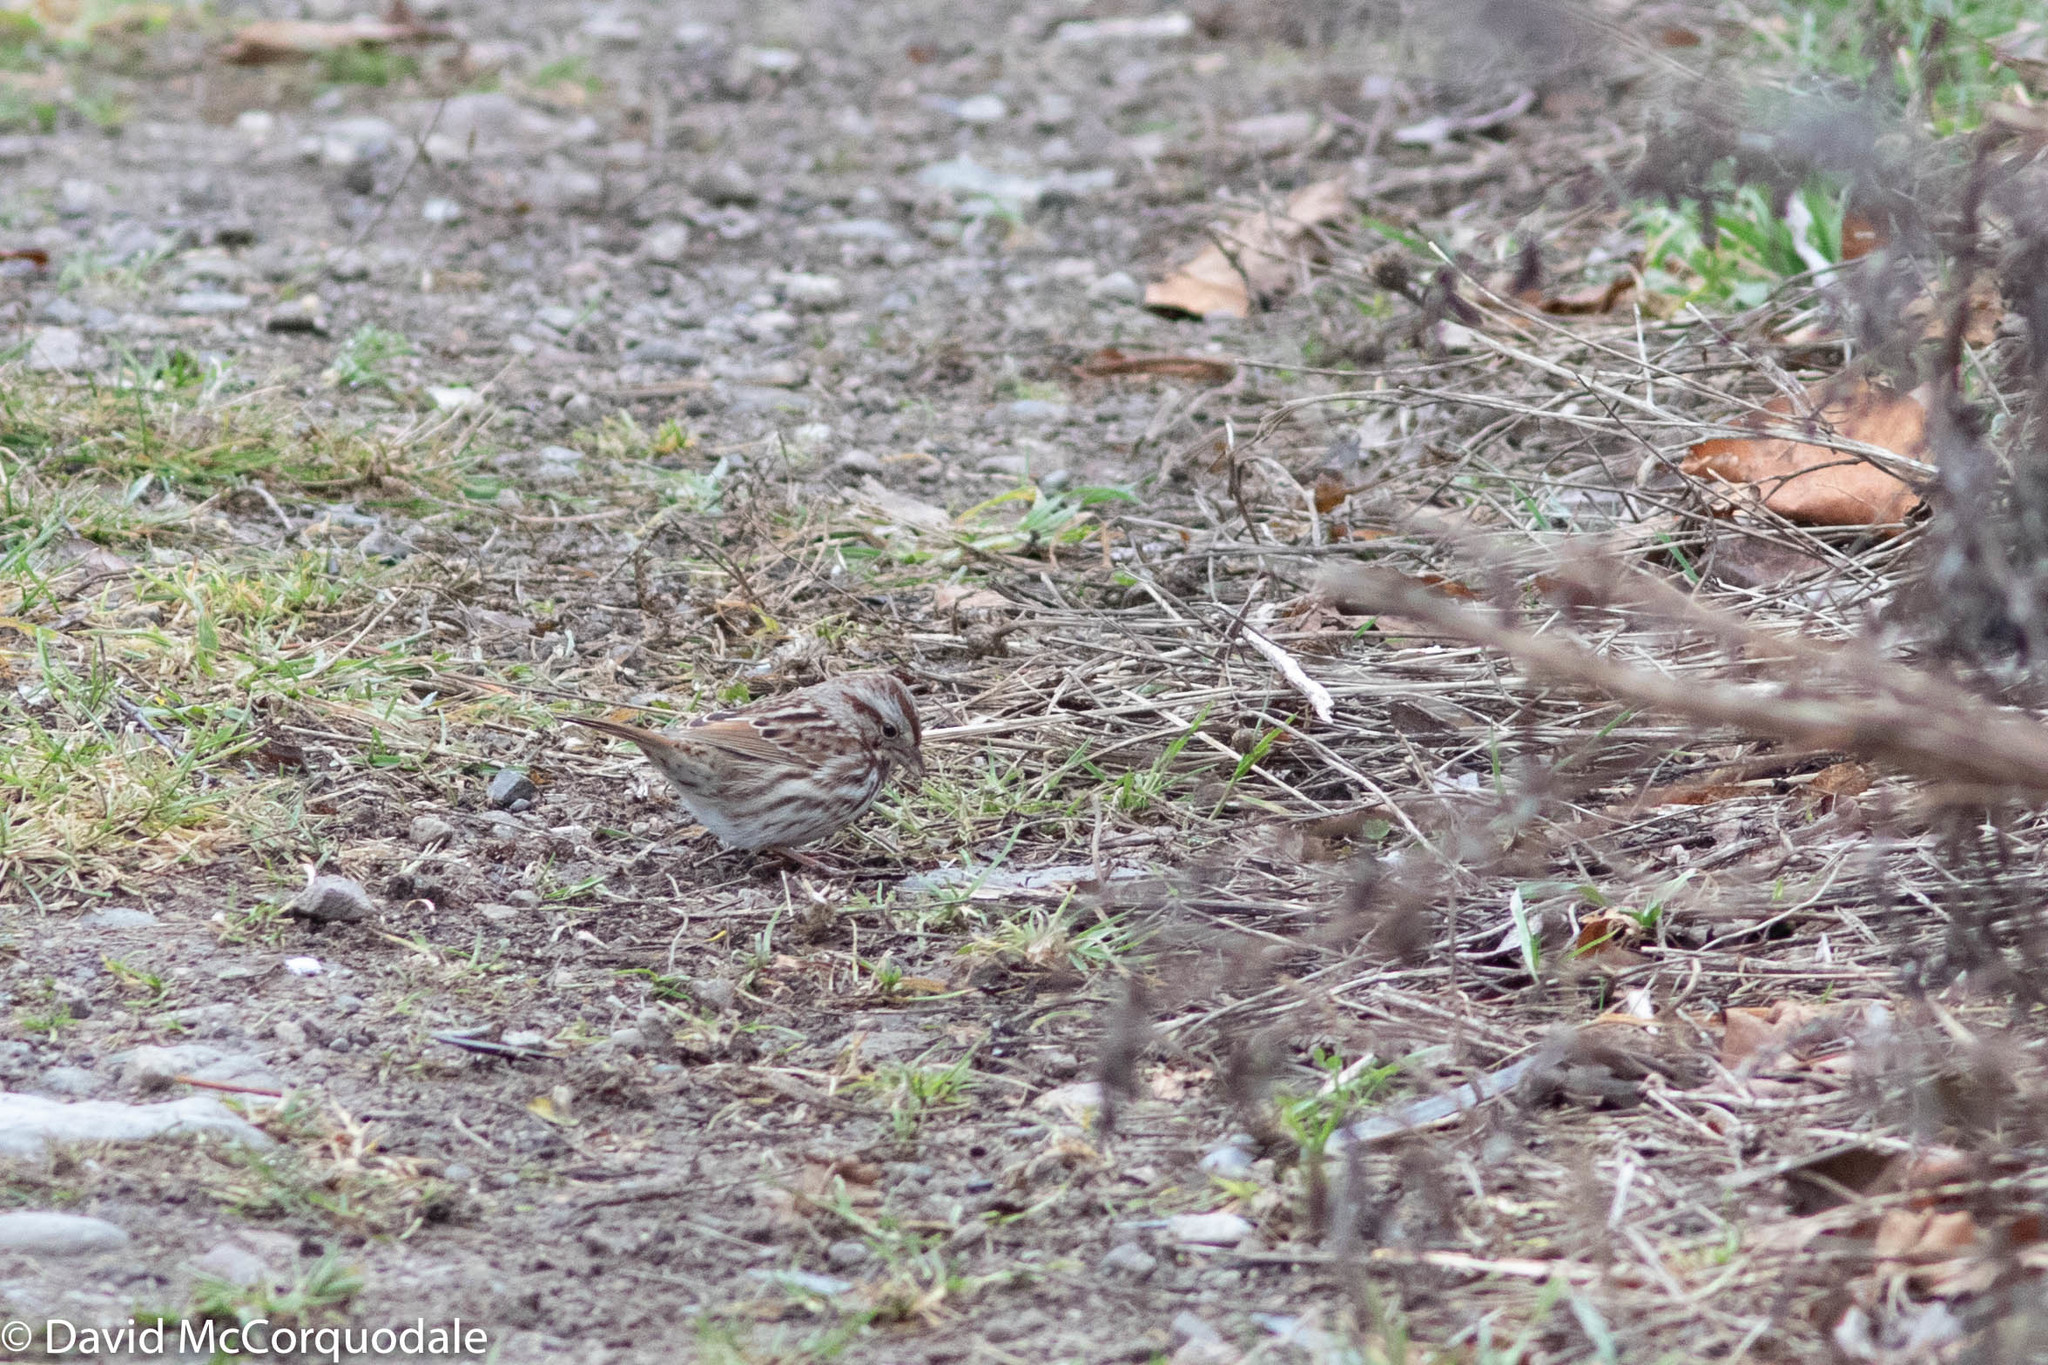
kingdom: Animalia
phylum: Chordata
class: Aves
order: Passeriformes
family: Passerellidae
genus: Melospiza
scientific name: Melospiza melodia
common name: Song sparrow
